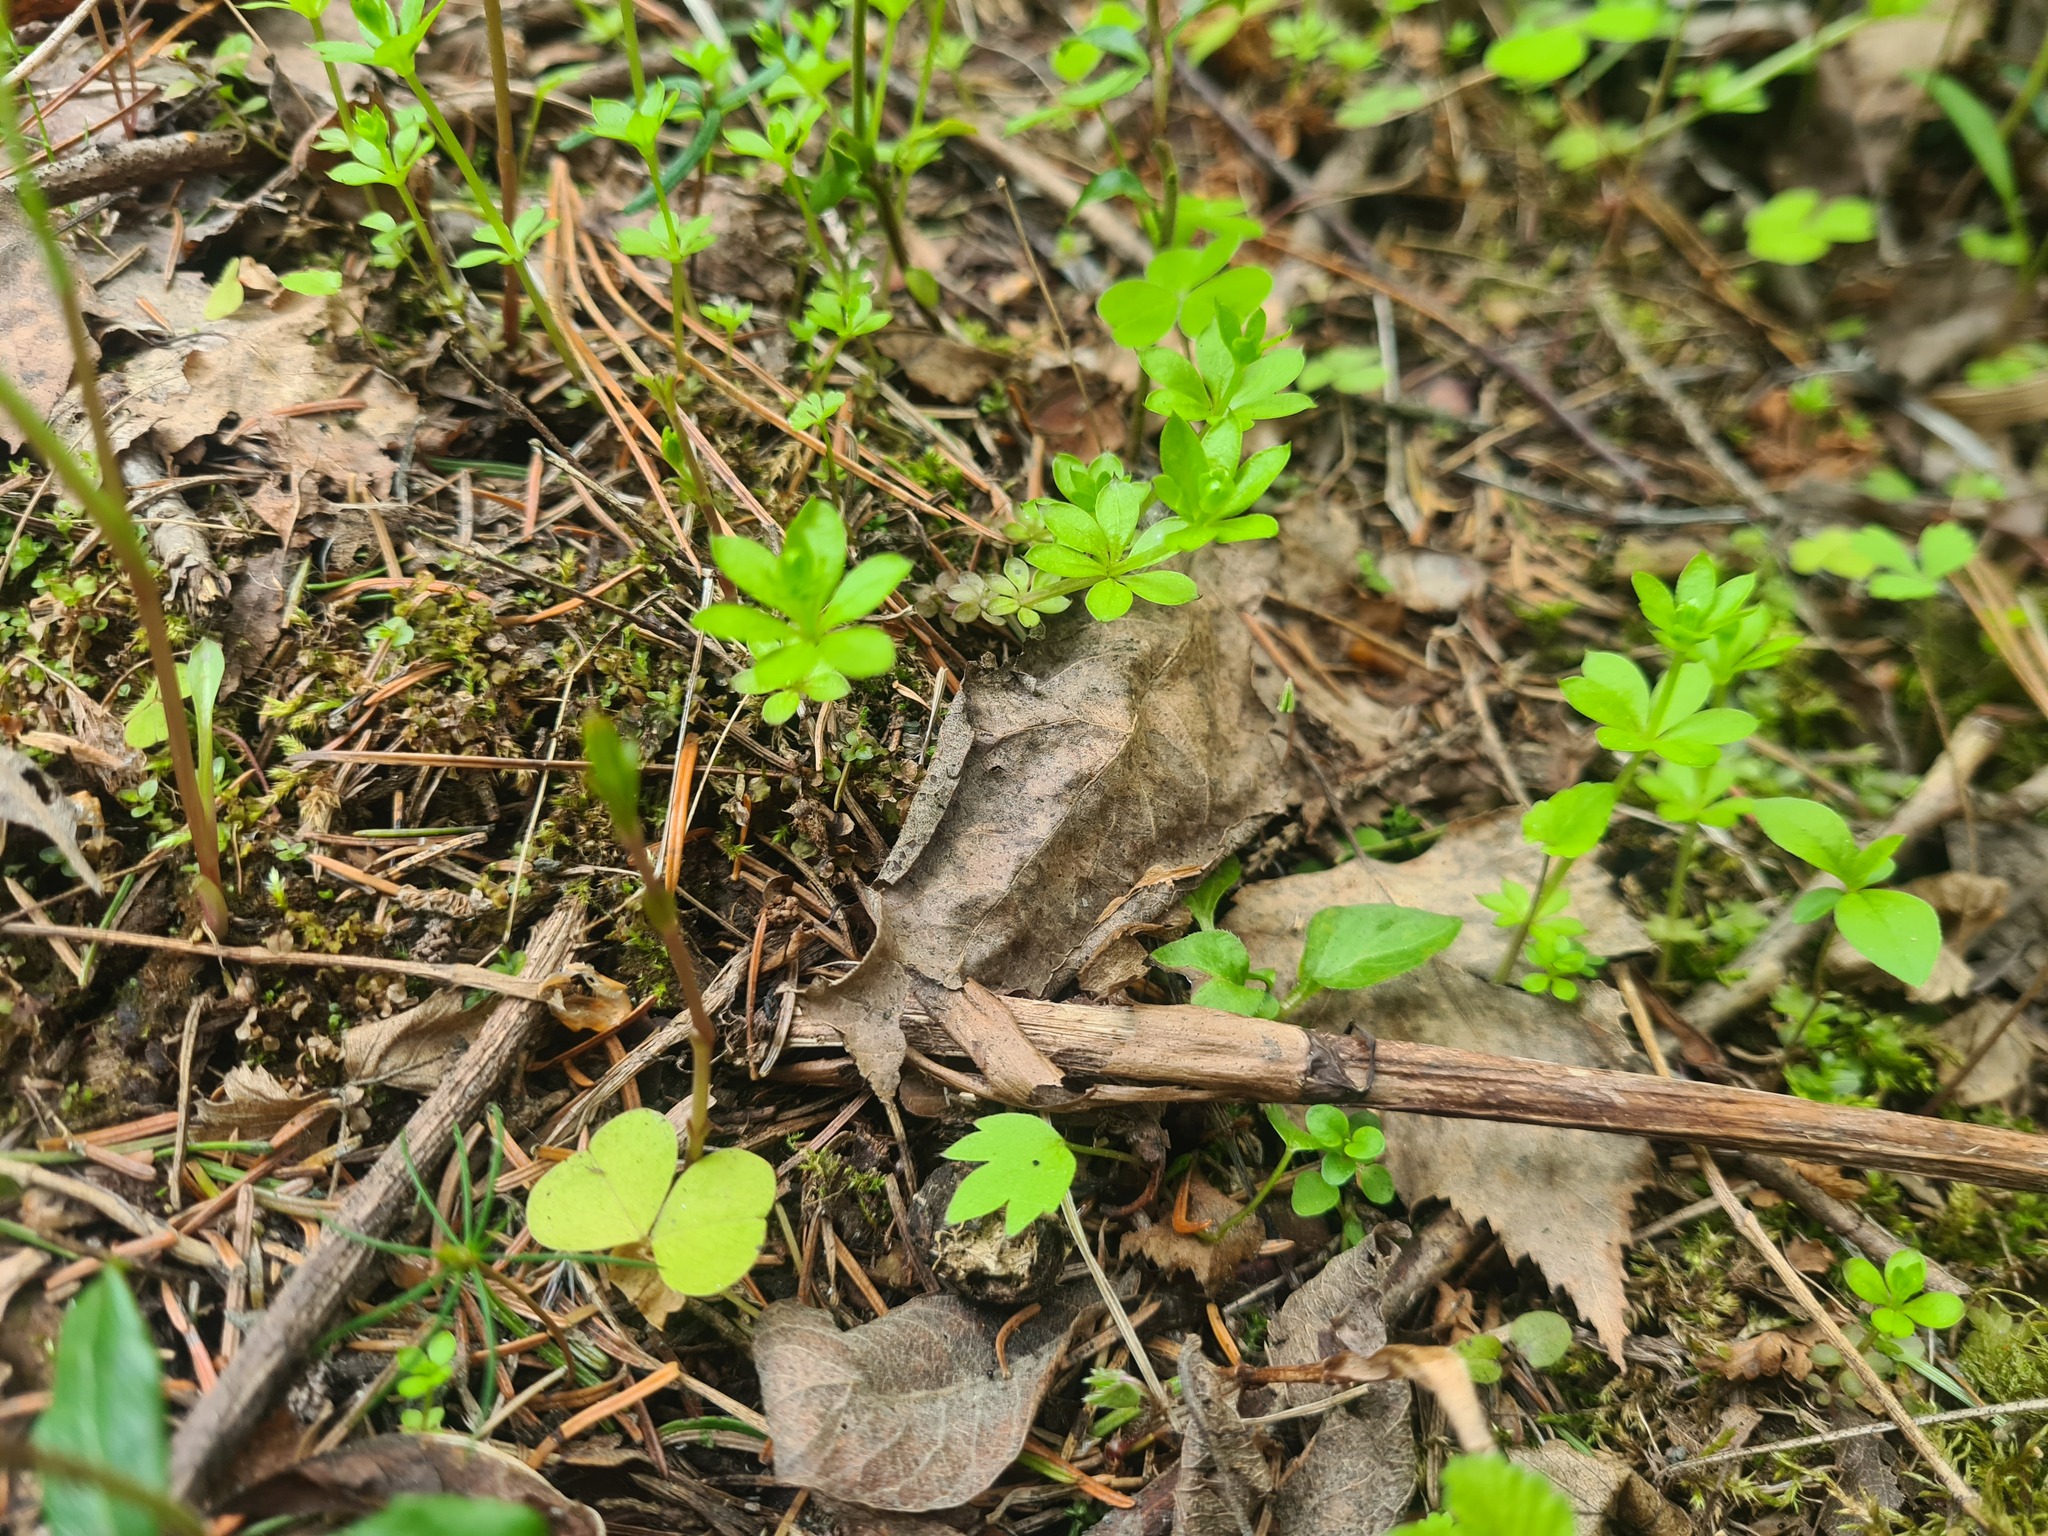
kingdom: Plantae
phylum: Tracheophyta
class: Magnoliopsida
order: Gentianales
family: Rubiaceae
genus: Galium
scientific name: Galium triflorum
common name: Fragrant bedstraw
